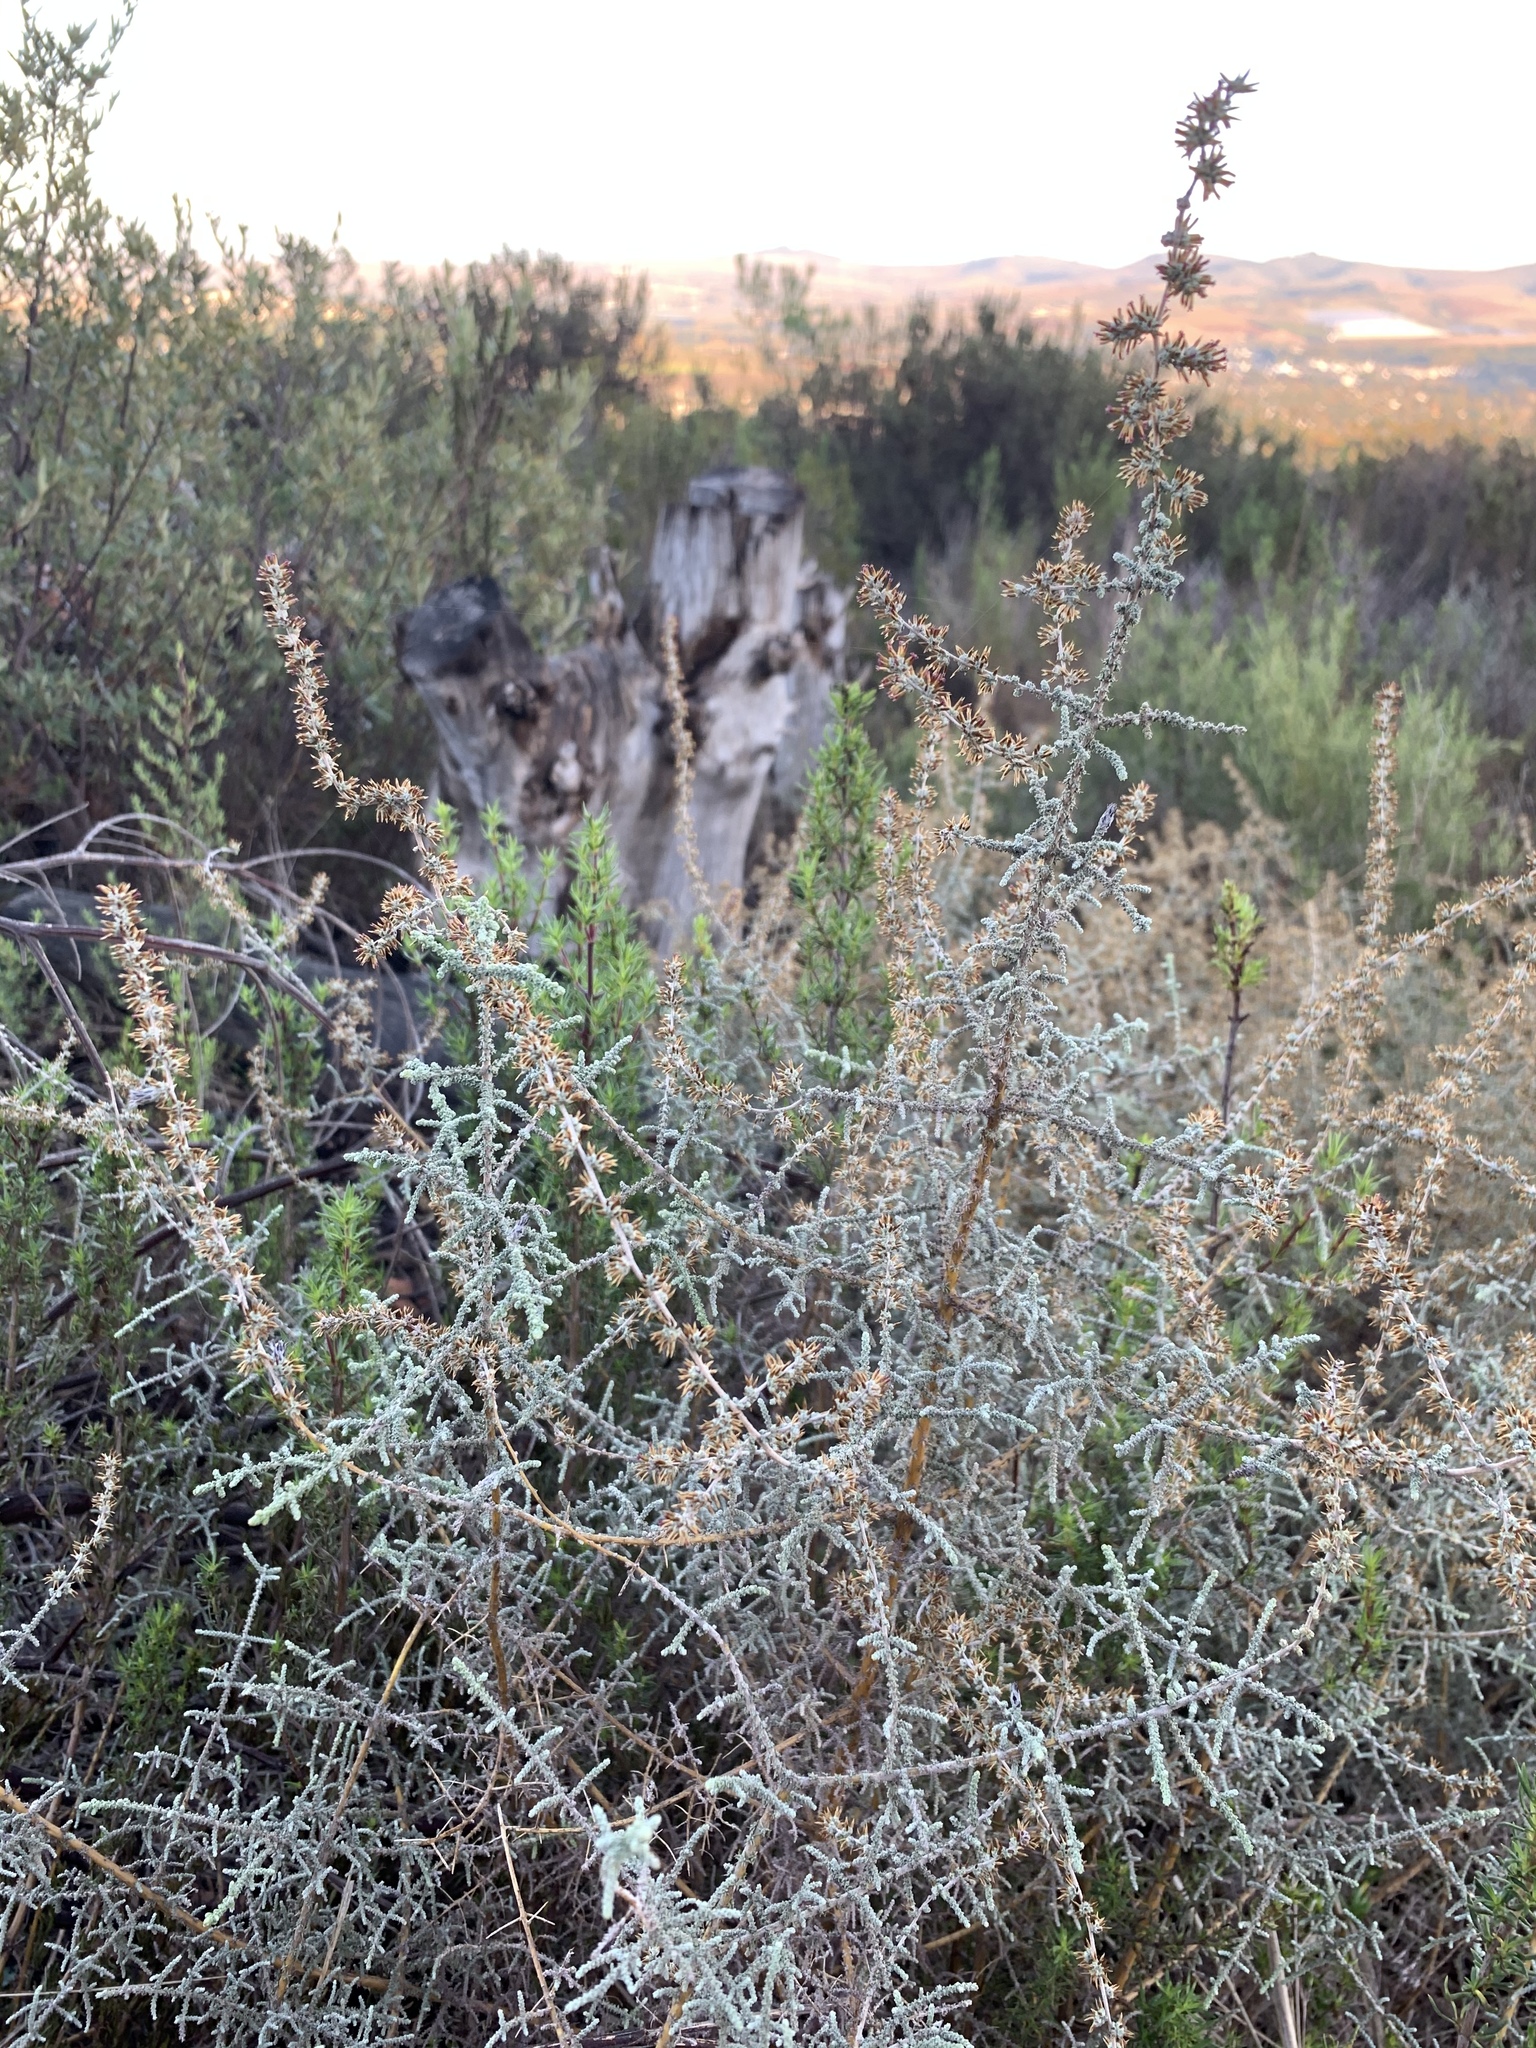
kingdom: Plantae
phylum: Tracheophyta
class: Magnoliopsida
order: Asterales
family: Asteraceae
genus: Seriphium
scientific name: Seriphium plumosum
